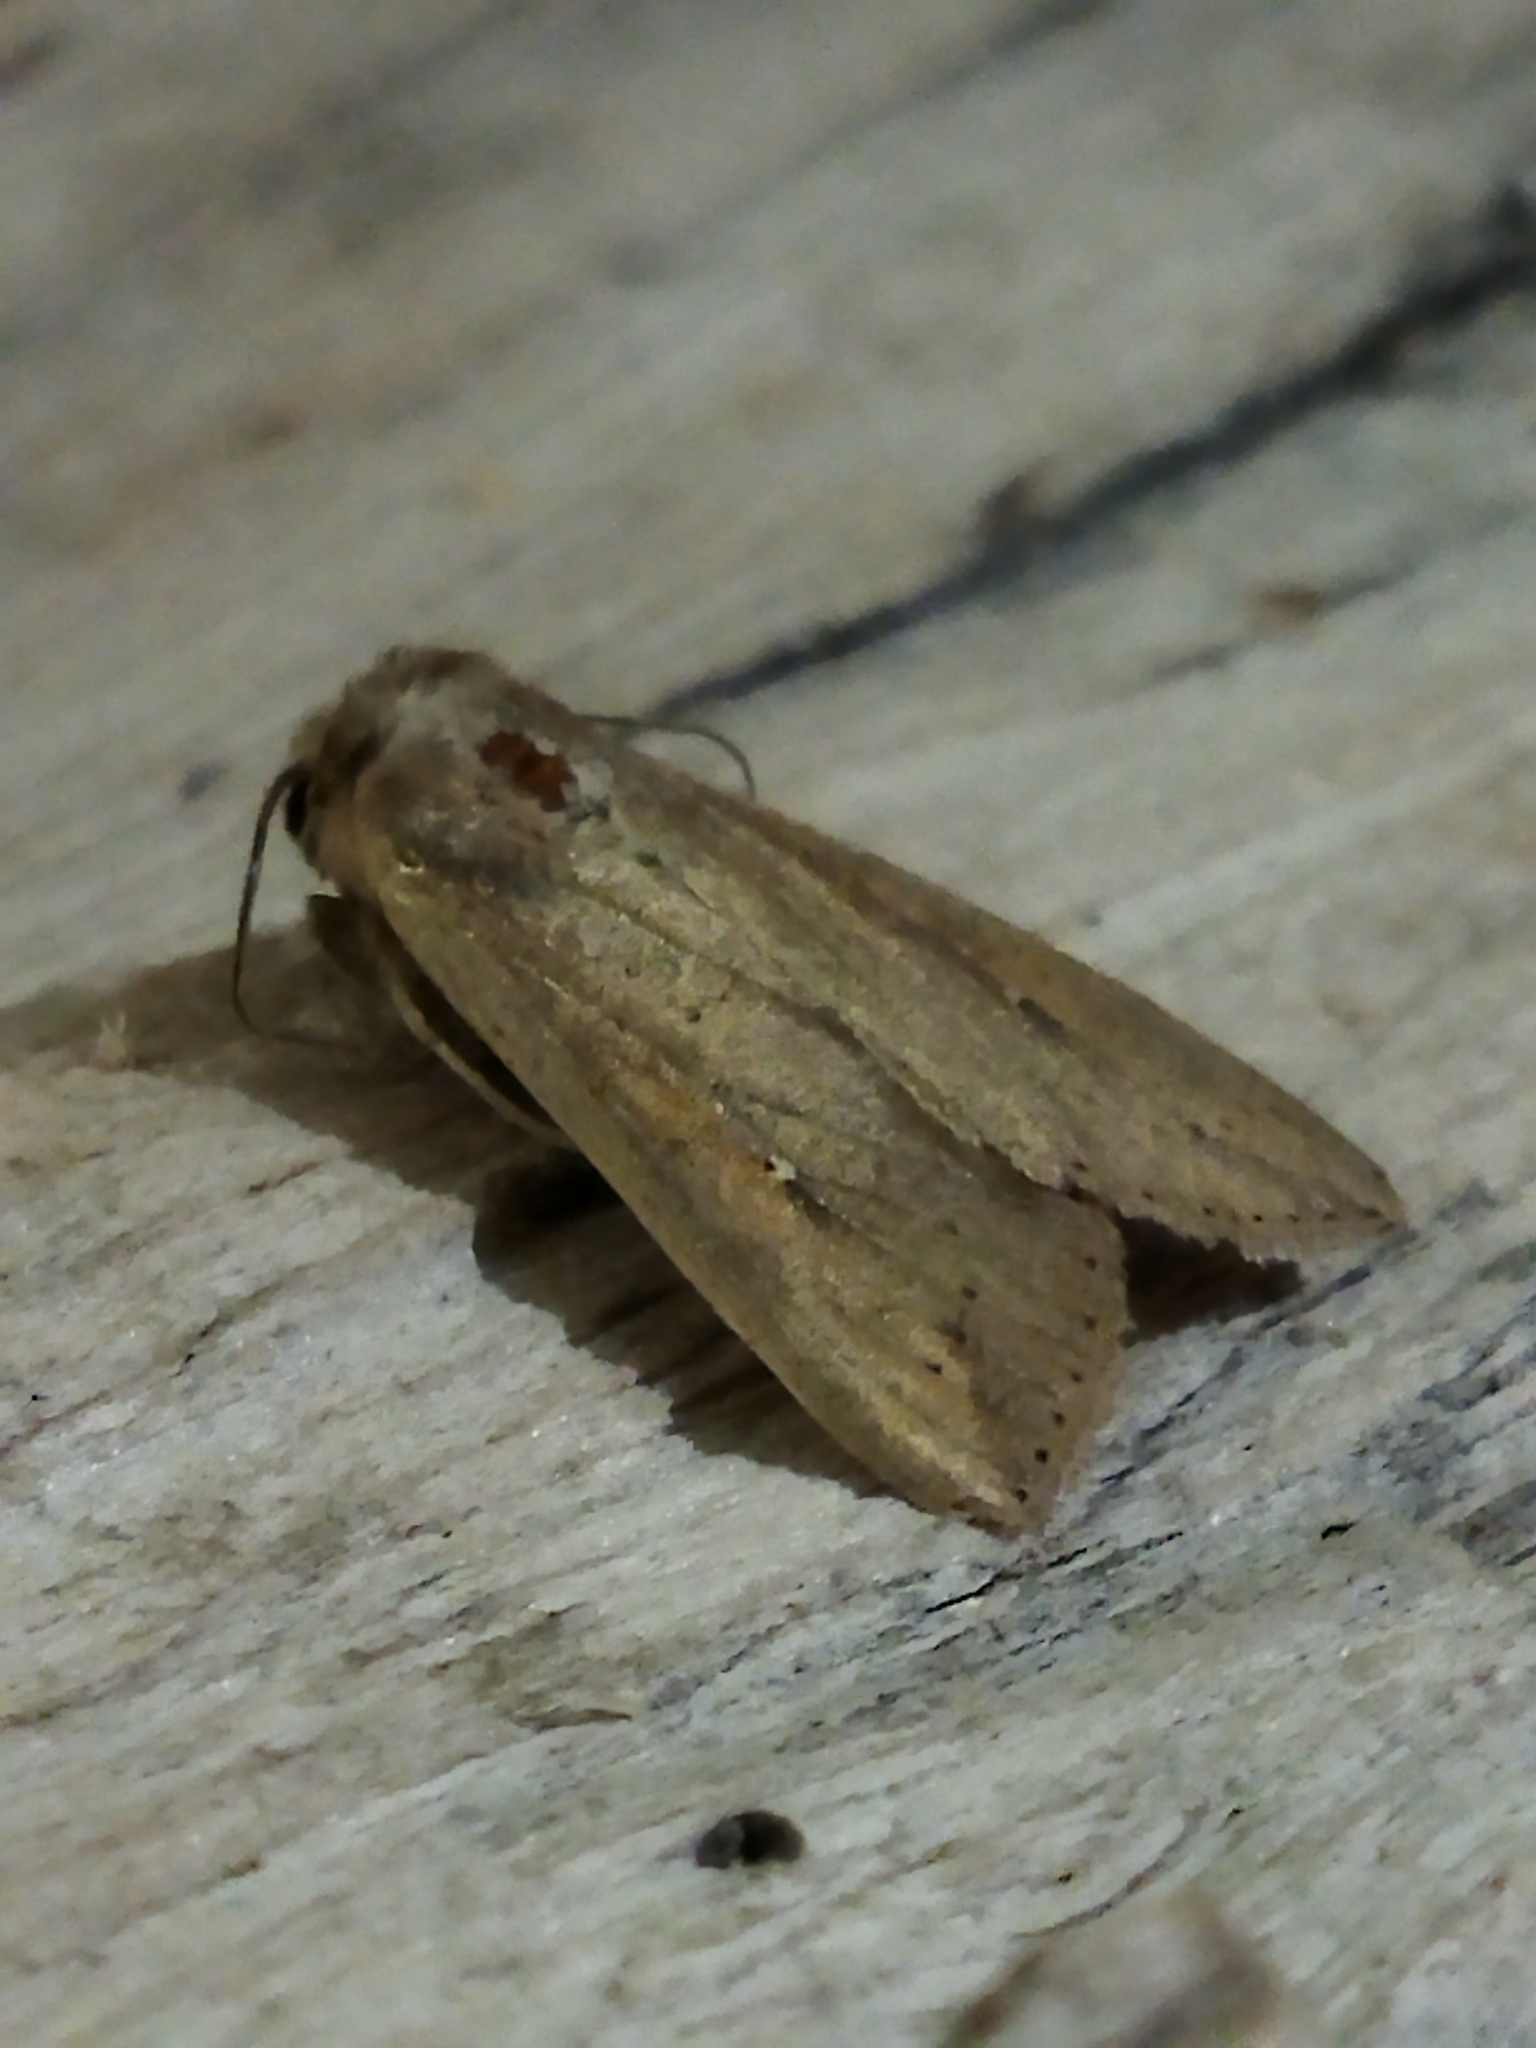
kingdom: Animalia
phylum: Arthropoda
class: Insecta
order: Lepidoptera
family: Noctuidae
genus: Mythimna
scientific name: Mythimna unipuncta
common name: White-speck
